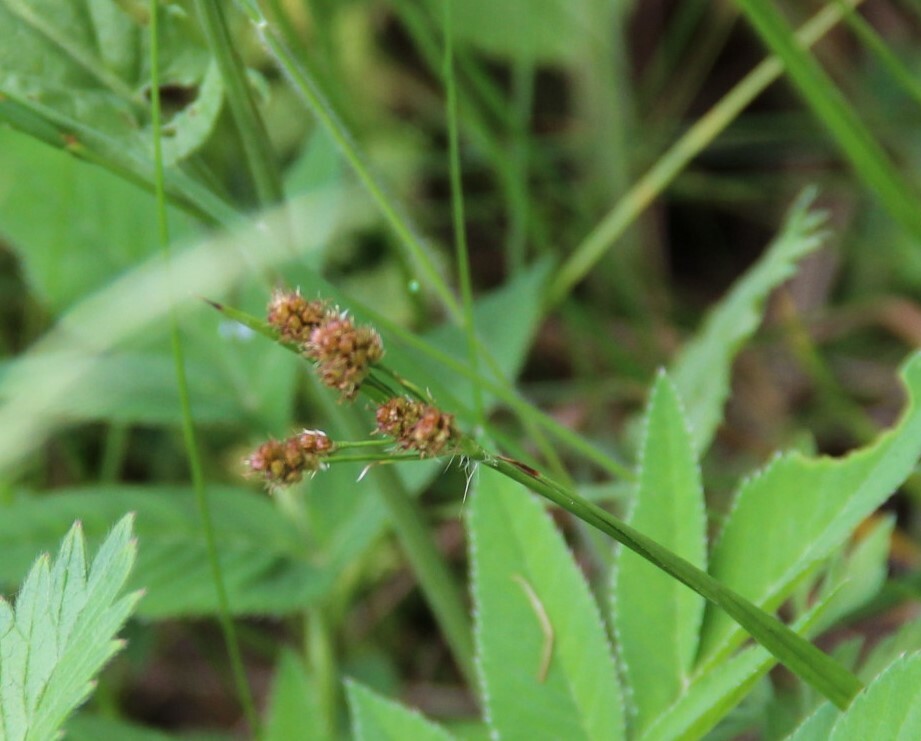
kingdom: Plantae
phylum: Tracheophyta
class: Liliopsida
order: Poales
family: Juncaceae
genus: Luzula
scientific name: Luzula pallescens
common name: Fen wood-rush
